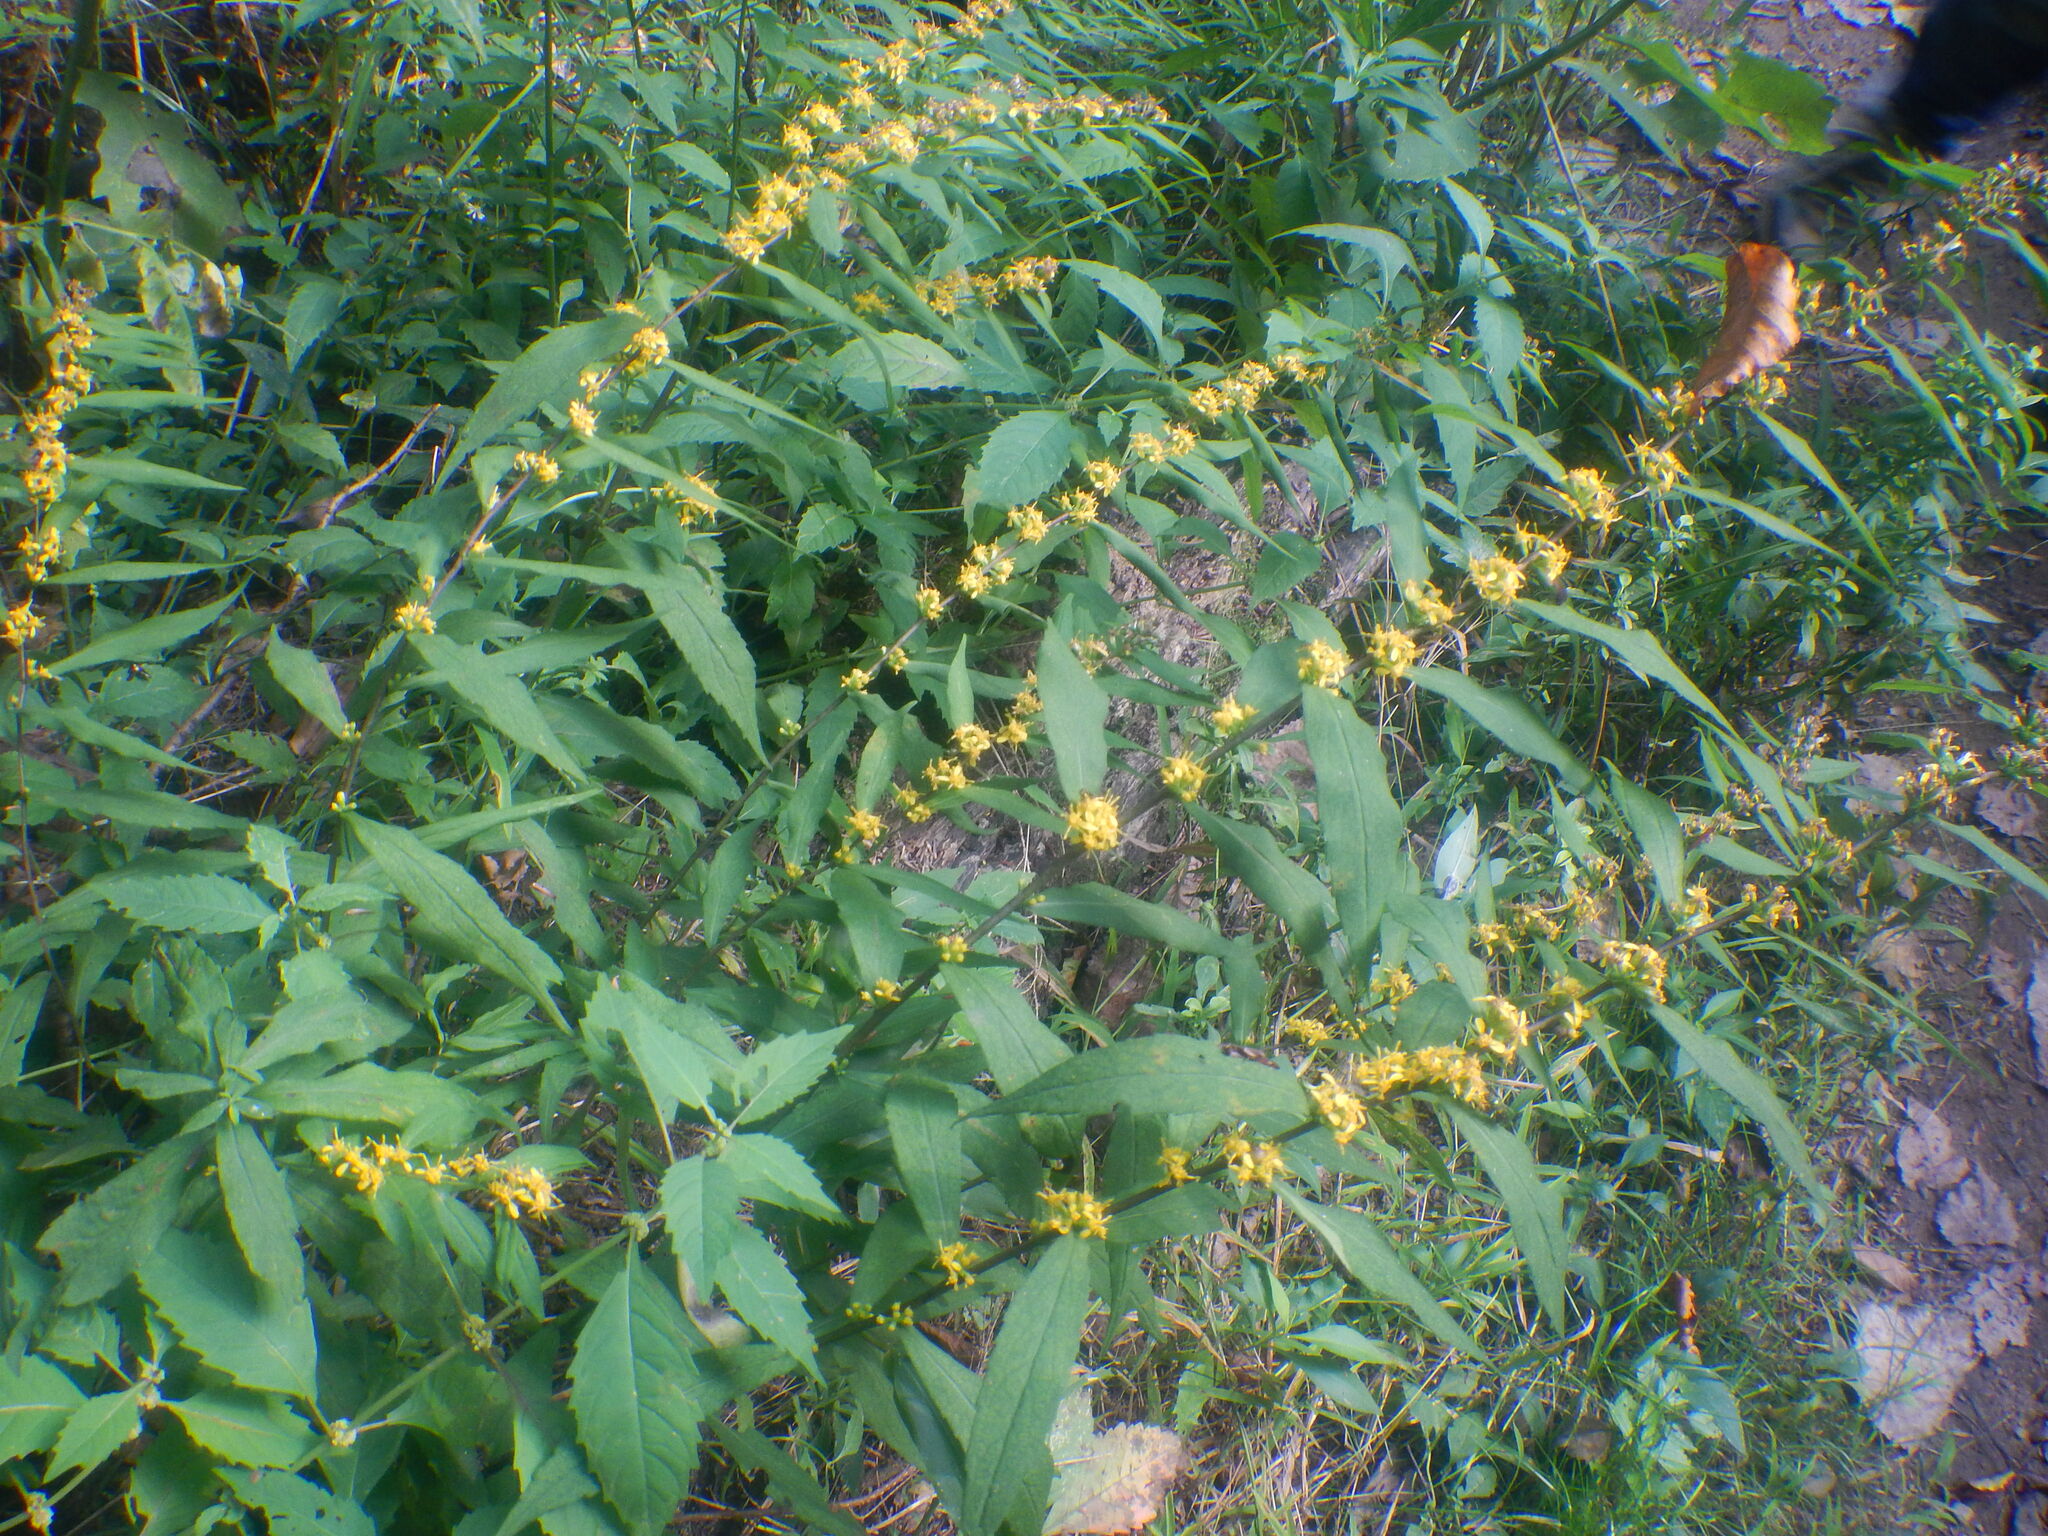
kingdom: Plantae
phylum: Tracheophyta
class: Magnoliopsida
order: Asterales
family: Asteraceae
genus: Solidago
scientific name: Solidago caesia
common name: Woodland goldenrod
